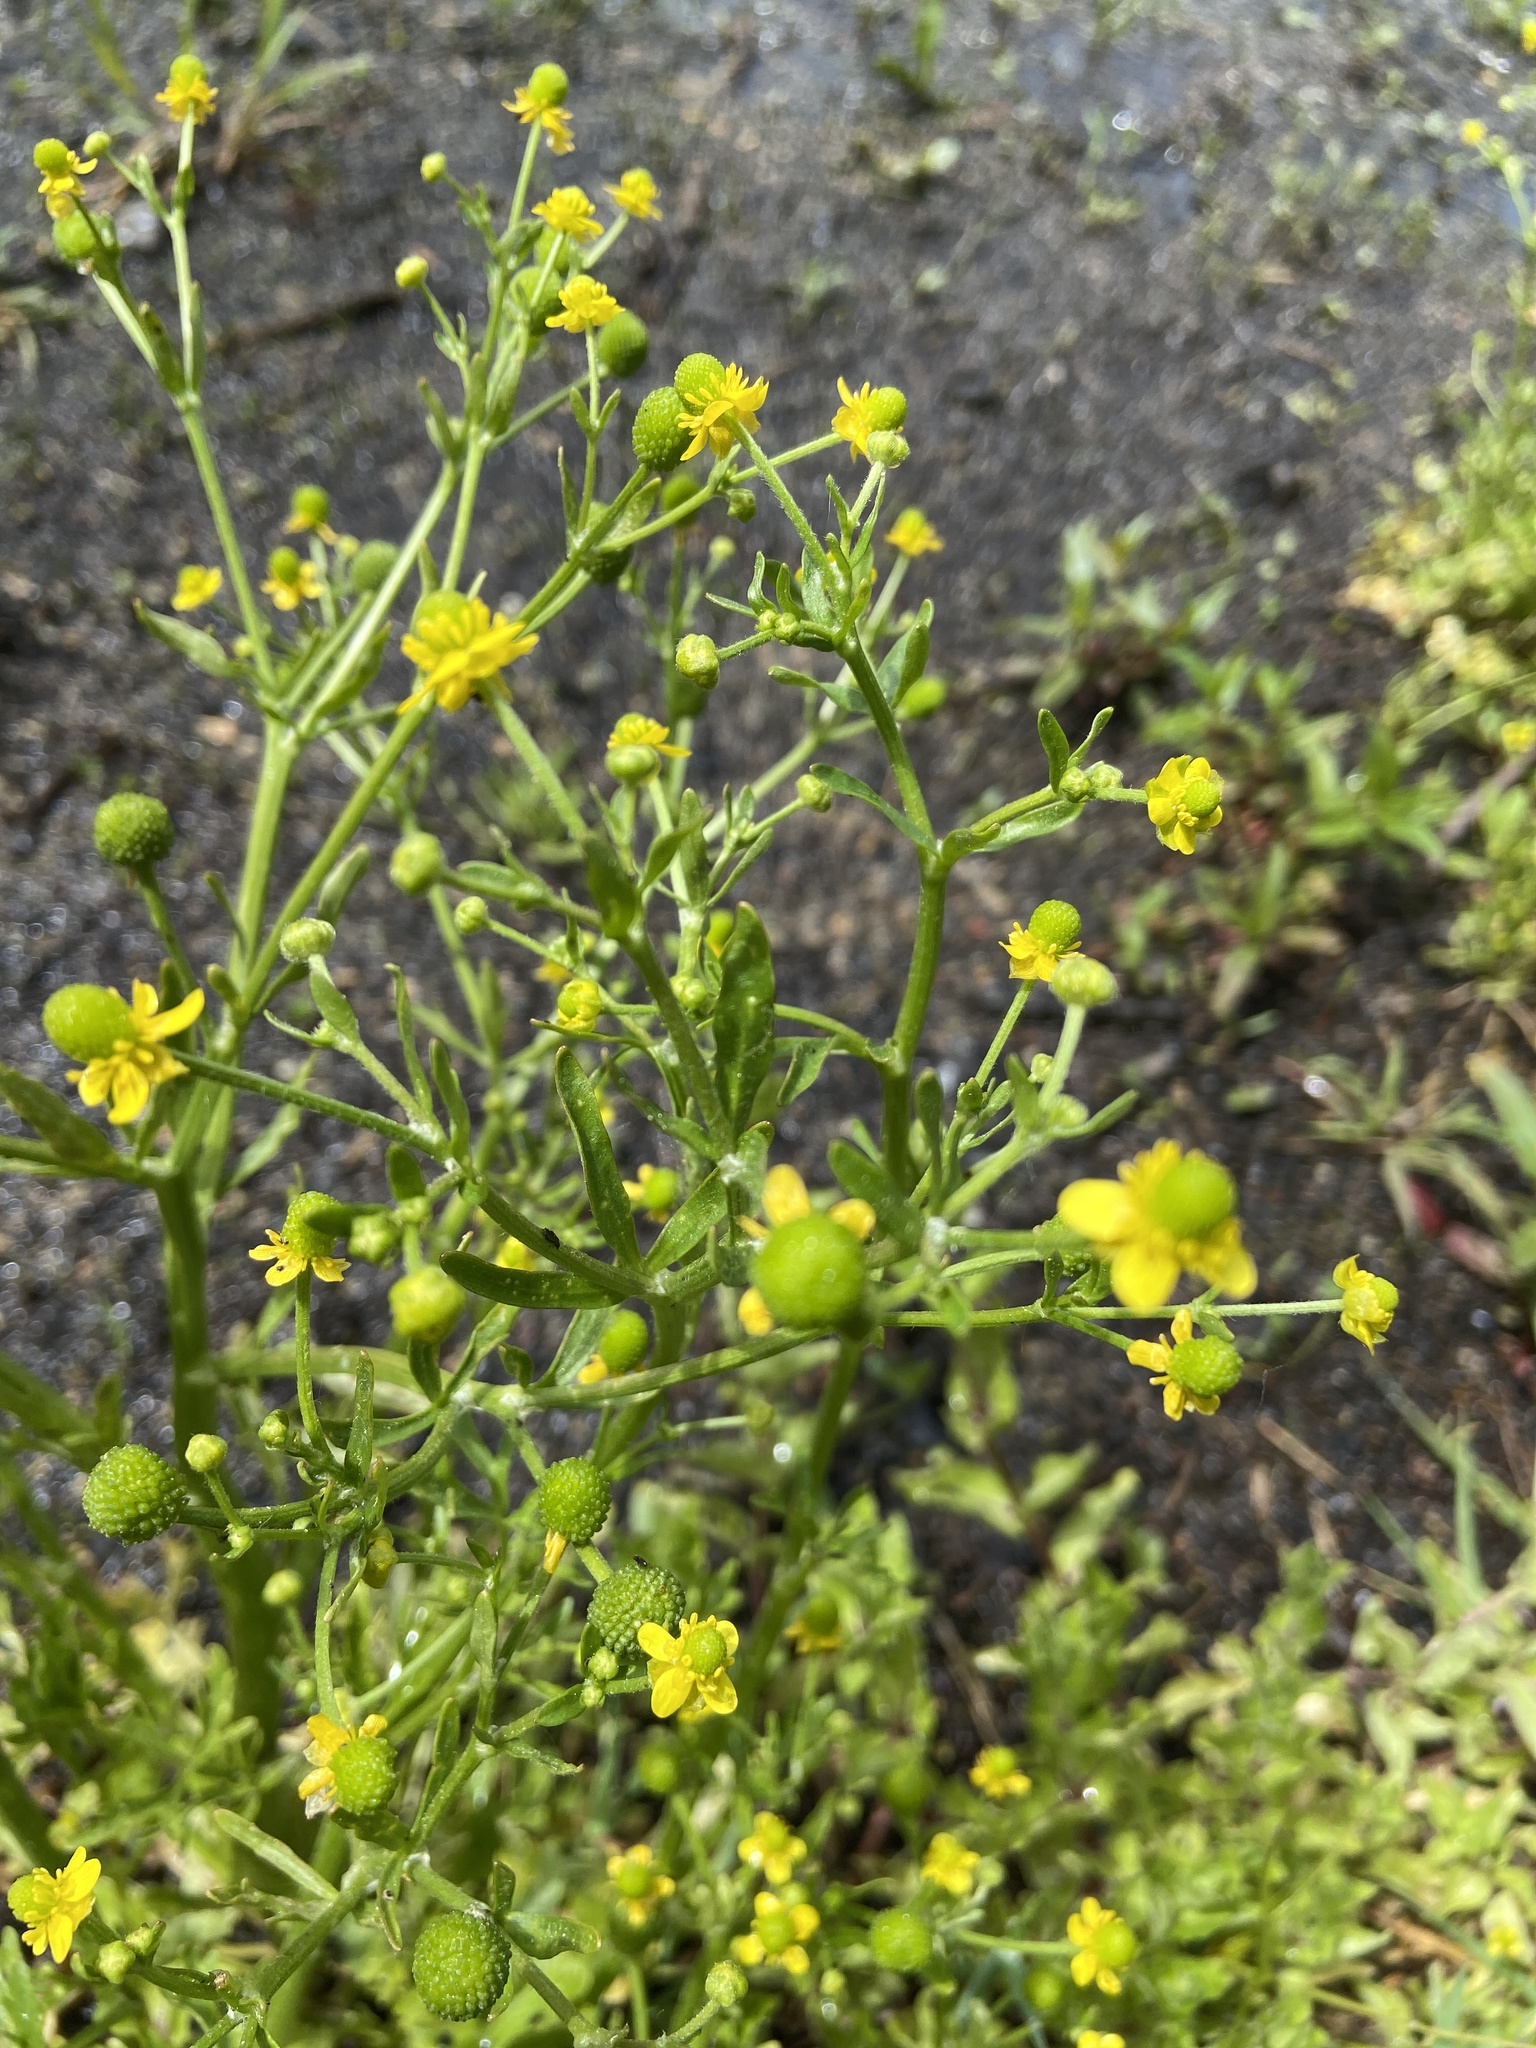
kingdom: Plantae
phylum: Tracheophyta
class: Magnoliopsida
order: Ranunculales
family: Ranunculaceae
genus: Ranunculus
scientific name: Ranunculus sceleratus
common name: Celery-leaved buttercup
